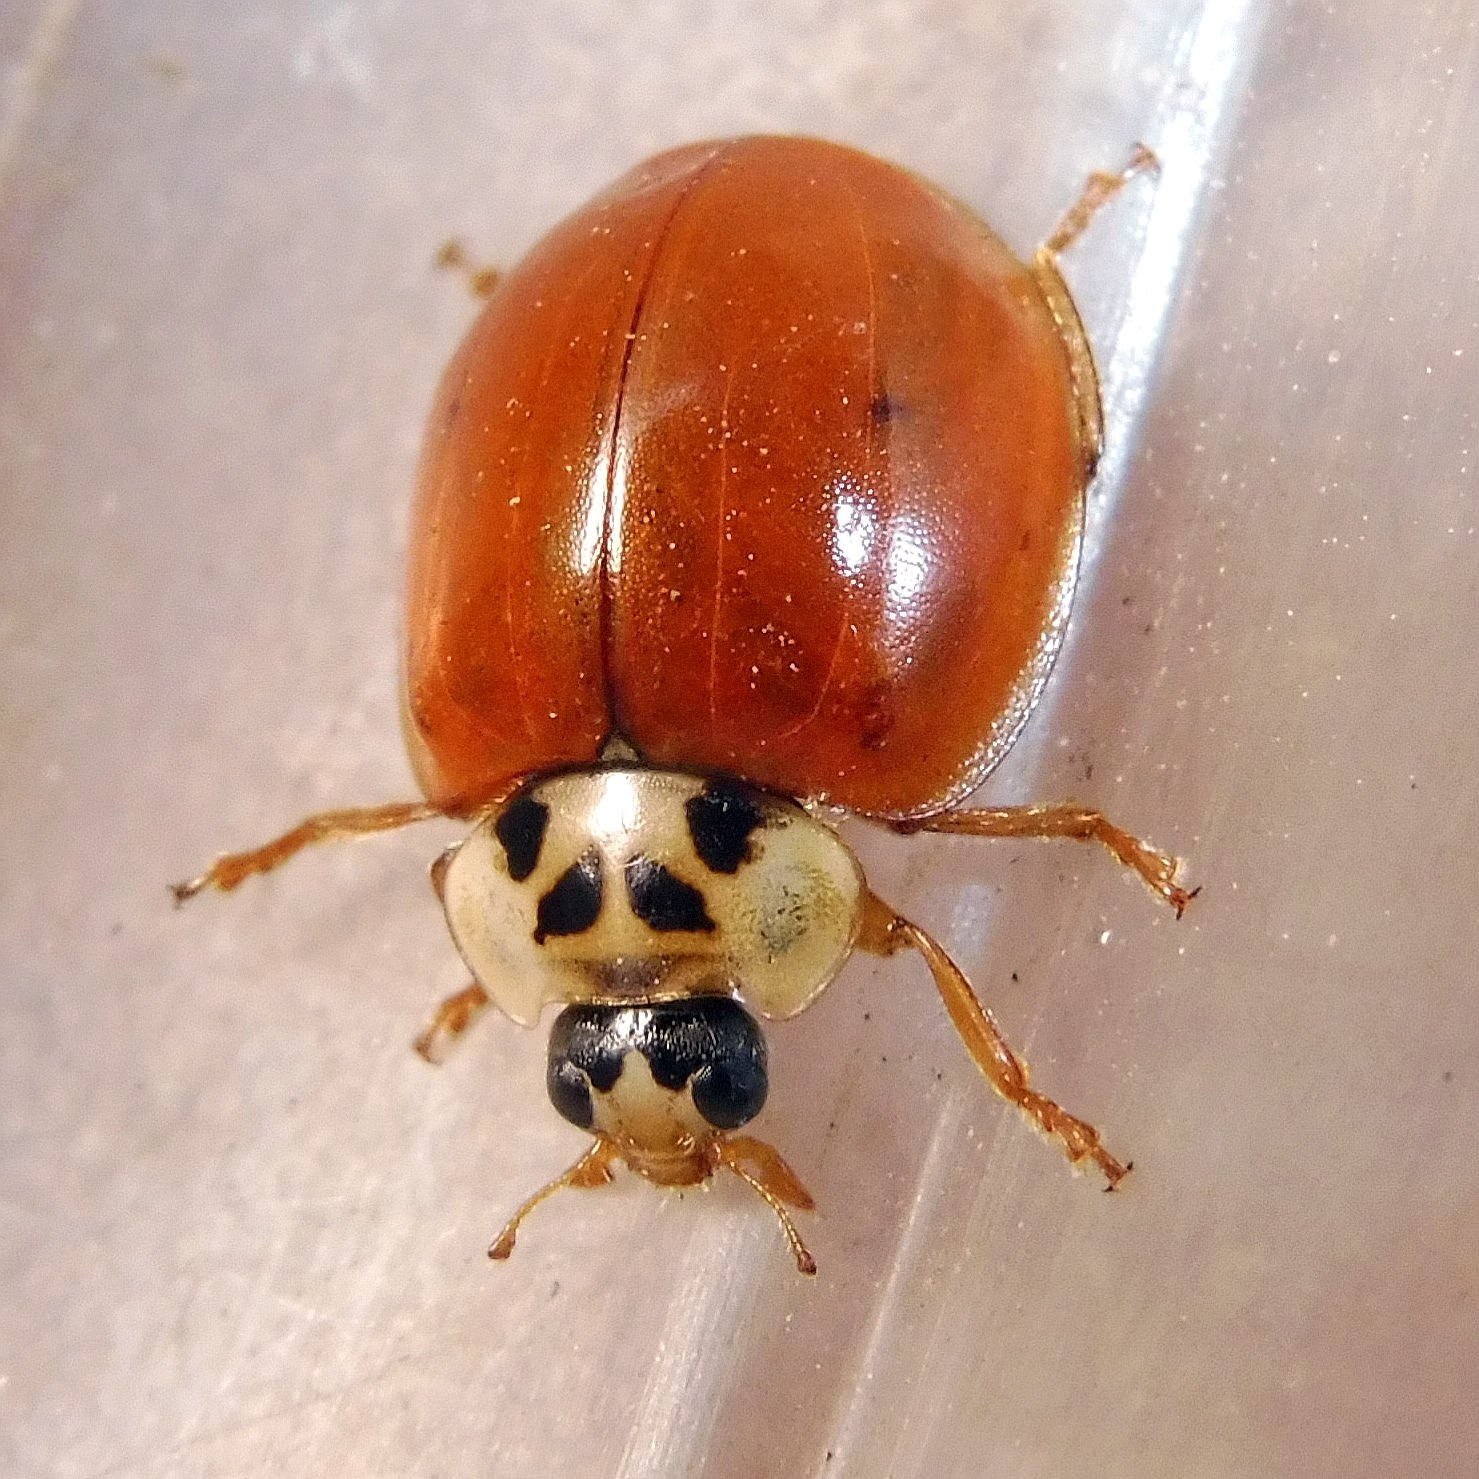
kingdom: Animalia
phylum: Arthropoda
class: Insecta
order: Coleoptera
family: Coccinellidae
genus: Harmonia
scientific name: Harmonia axyridis
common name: Harlequin ladybird
